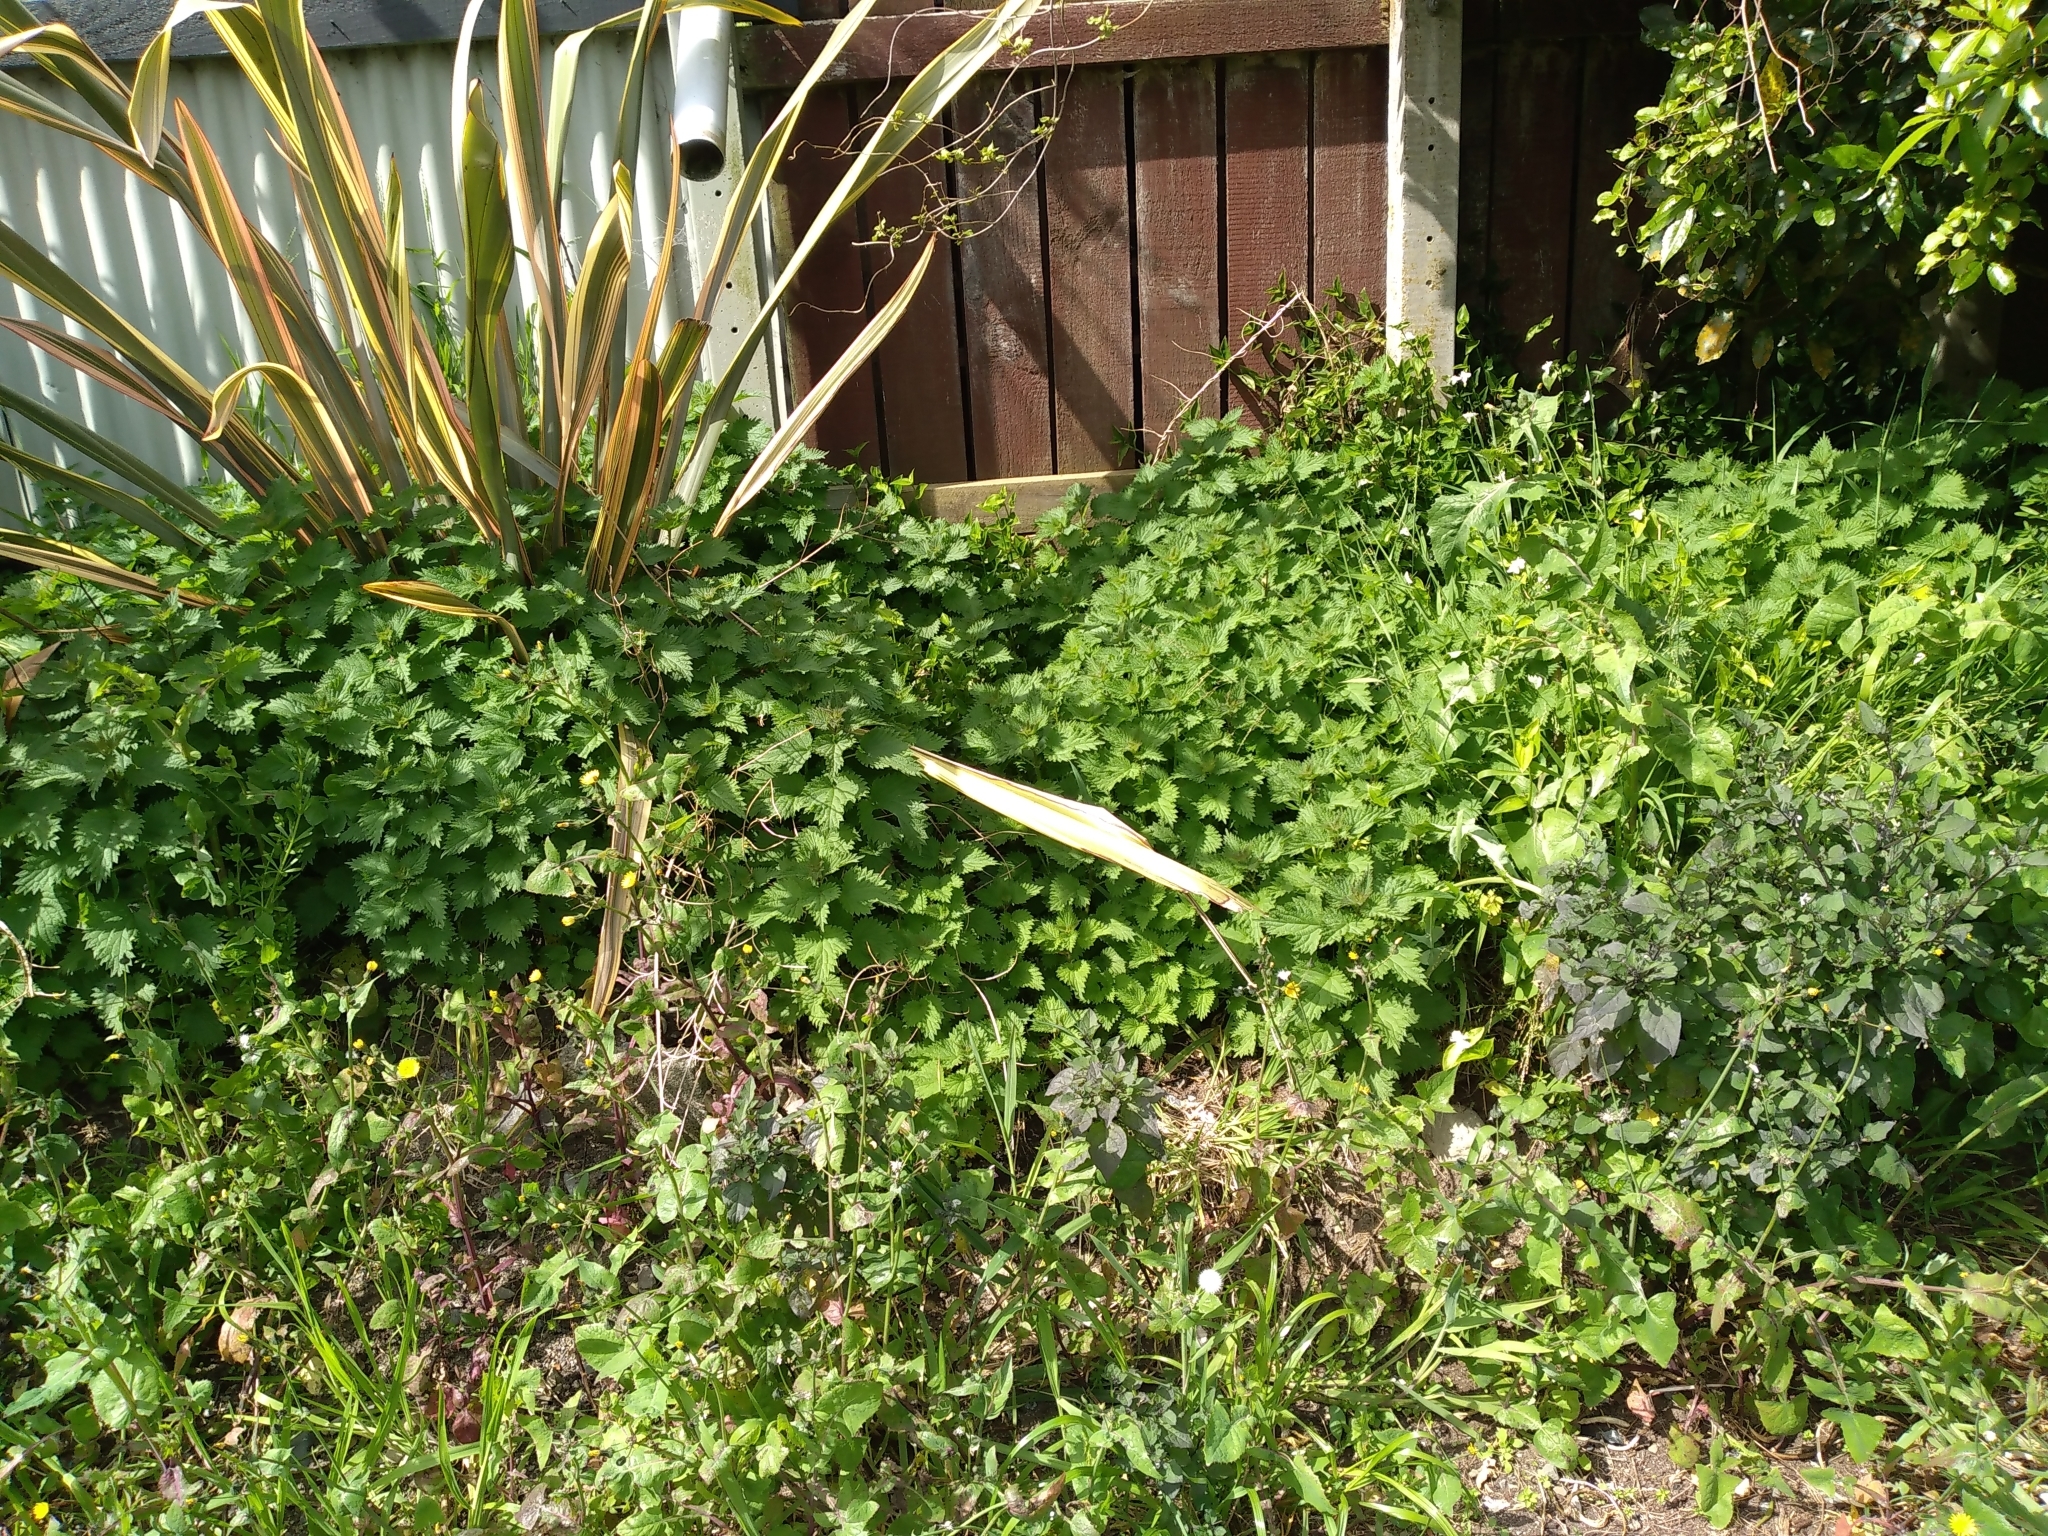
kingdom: Plantae
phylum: Tracheophyta
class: Magnoliopsida
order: Rosales
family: Urticaceae
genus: Urtica
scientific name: Urtica dioica
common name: Common nettle
